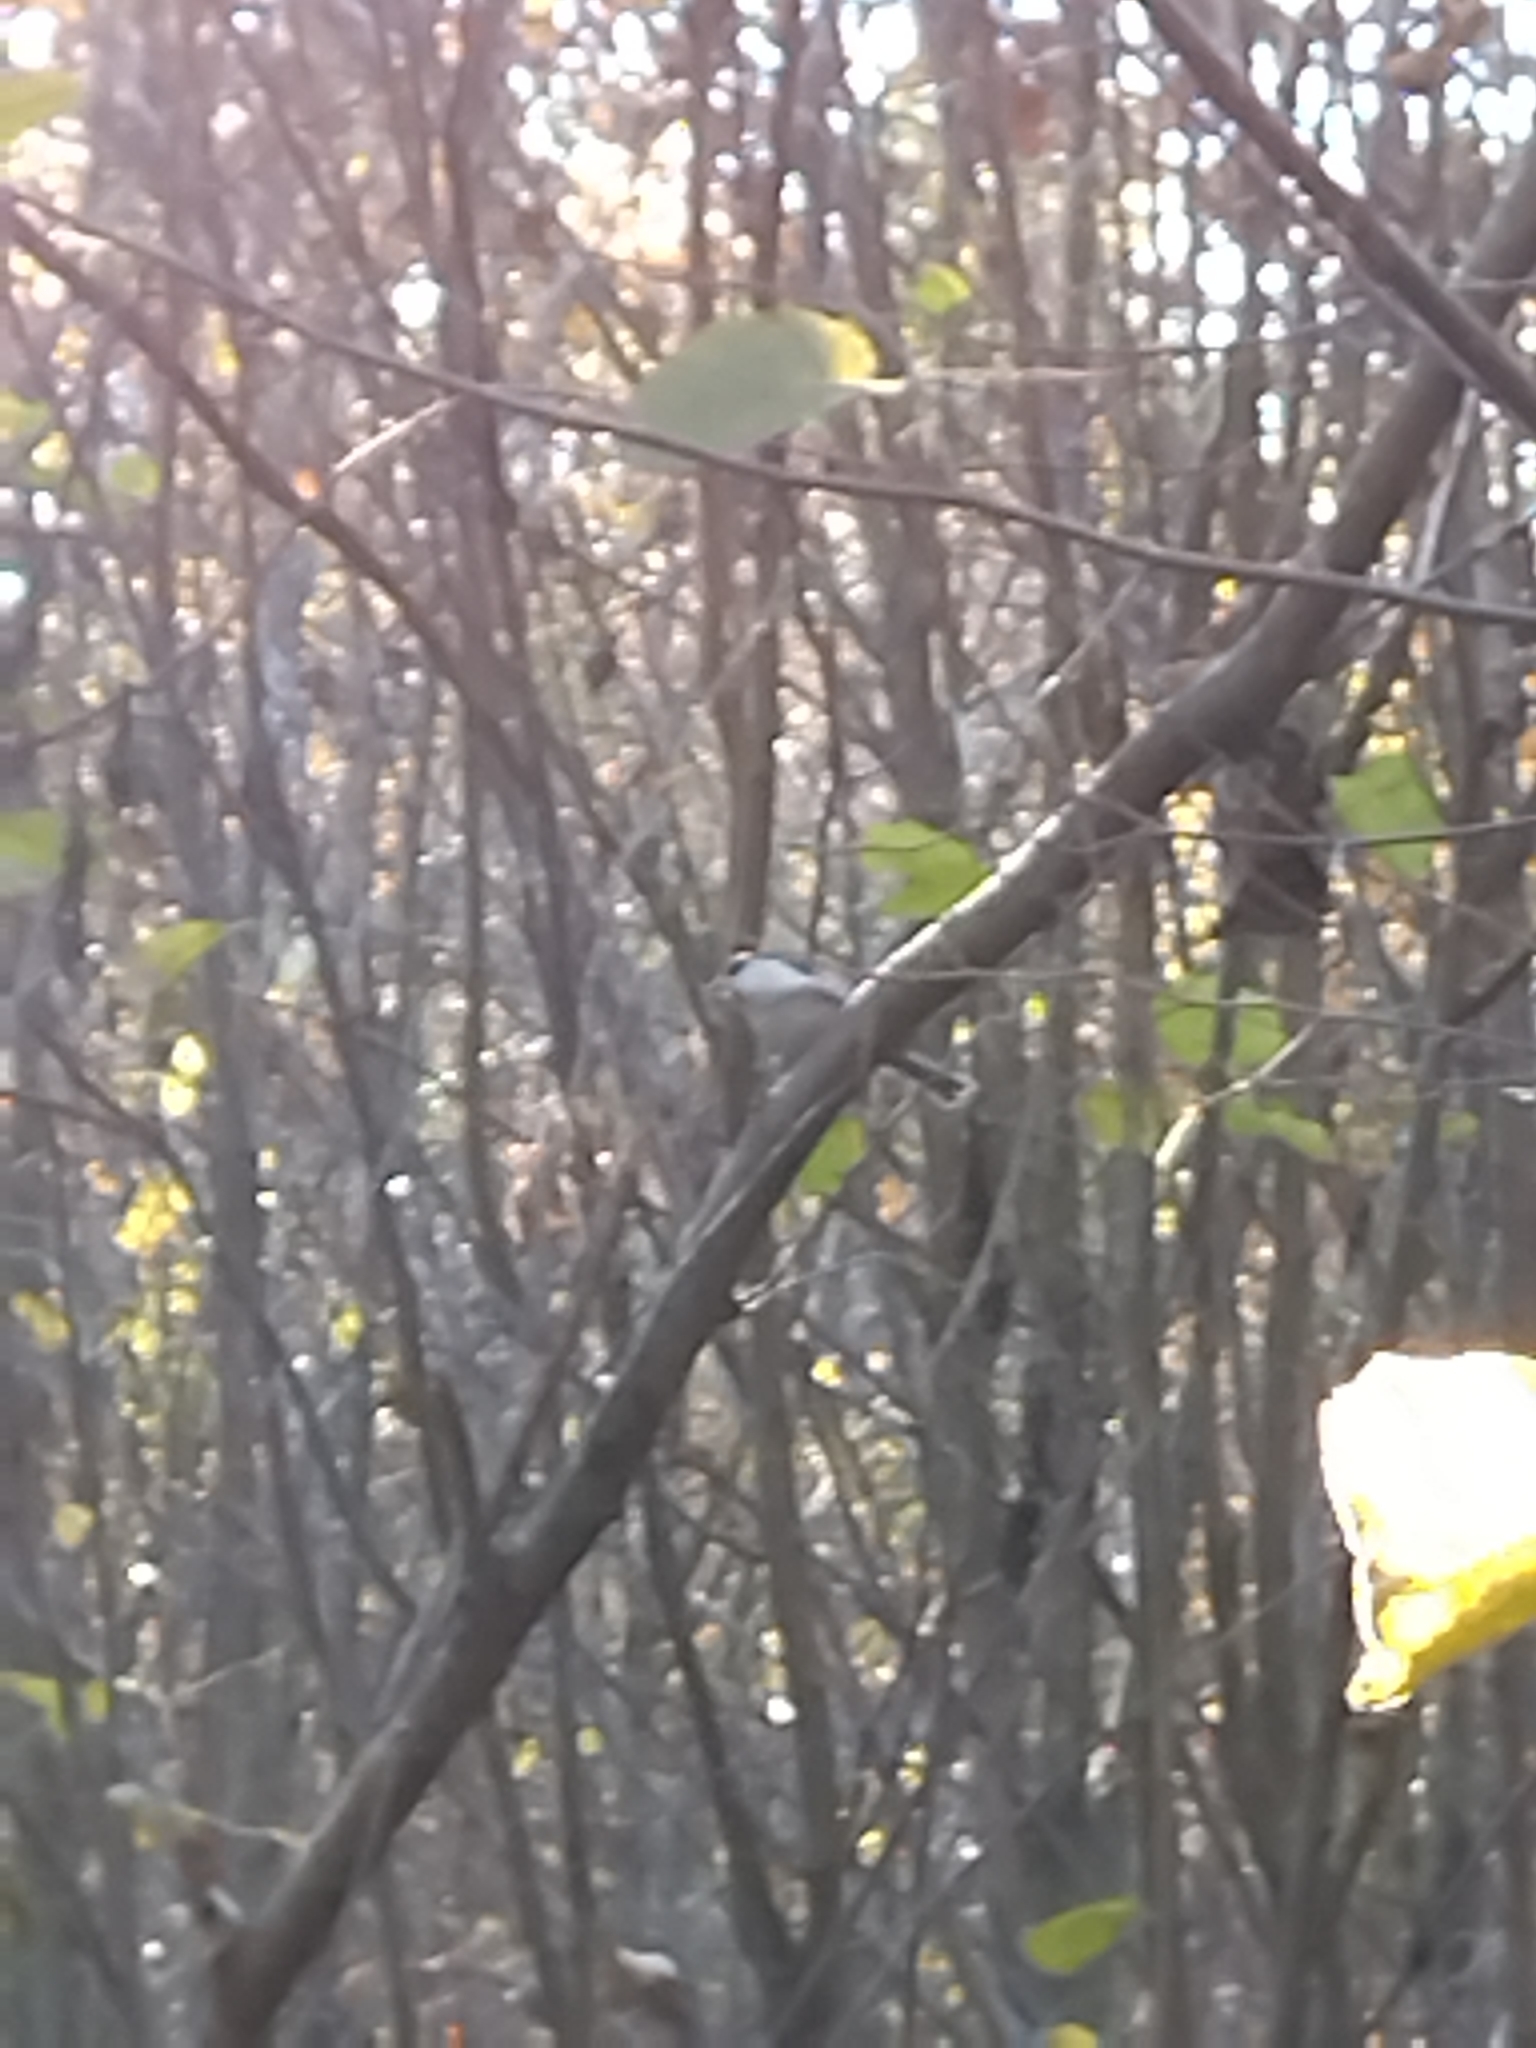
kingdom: Animalia
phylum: Chordata
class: Aves
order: Passeriformes
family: Paridae
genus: Poecile
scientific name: Poecile montanus
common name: Willow tit
